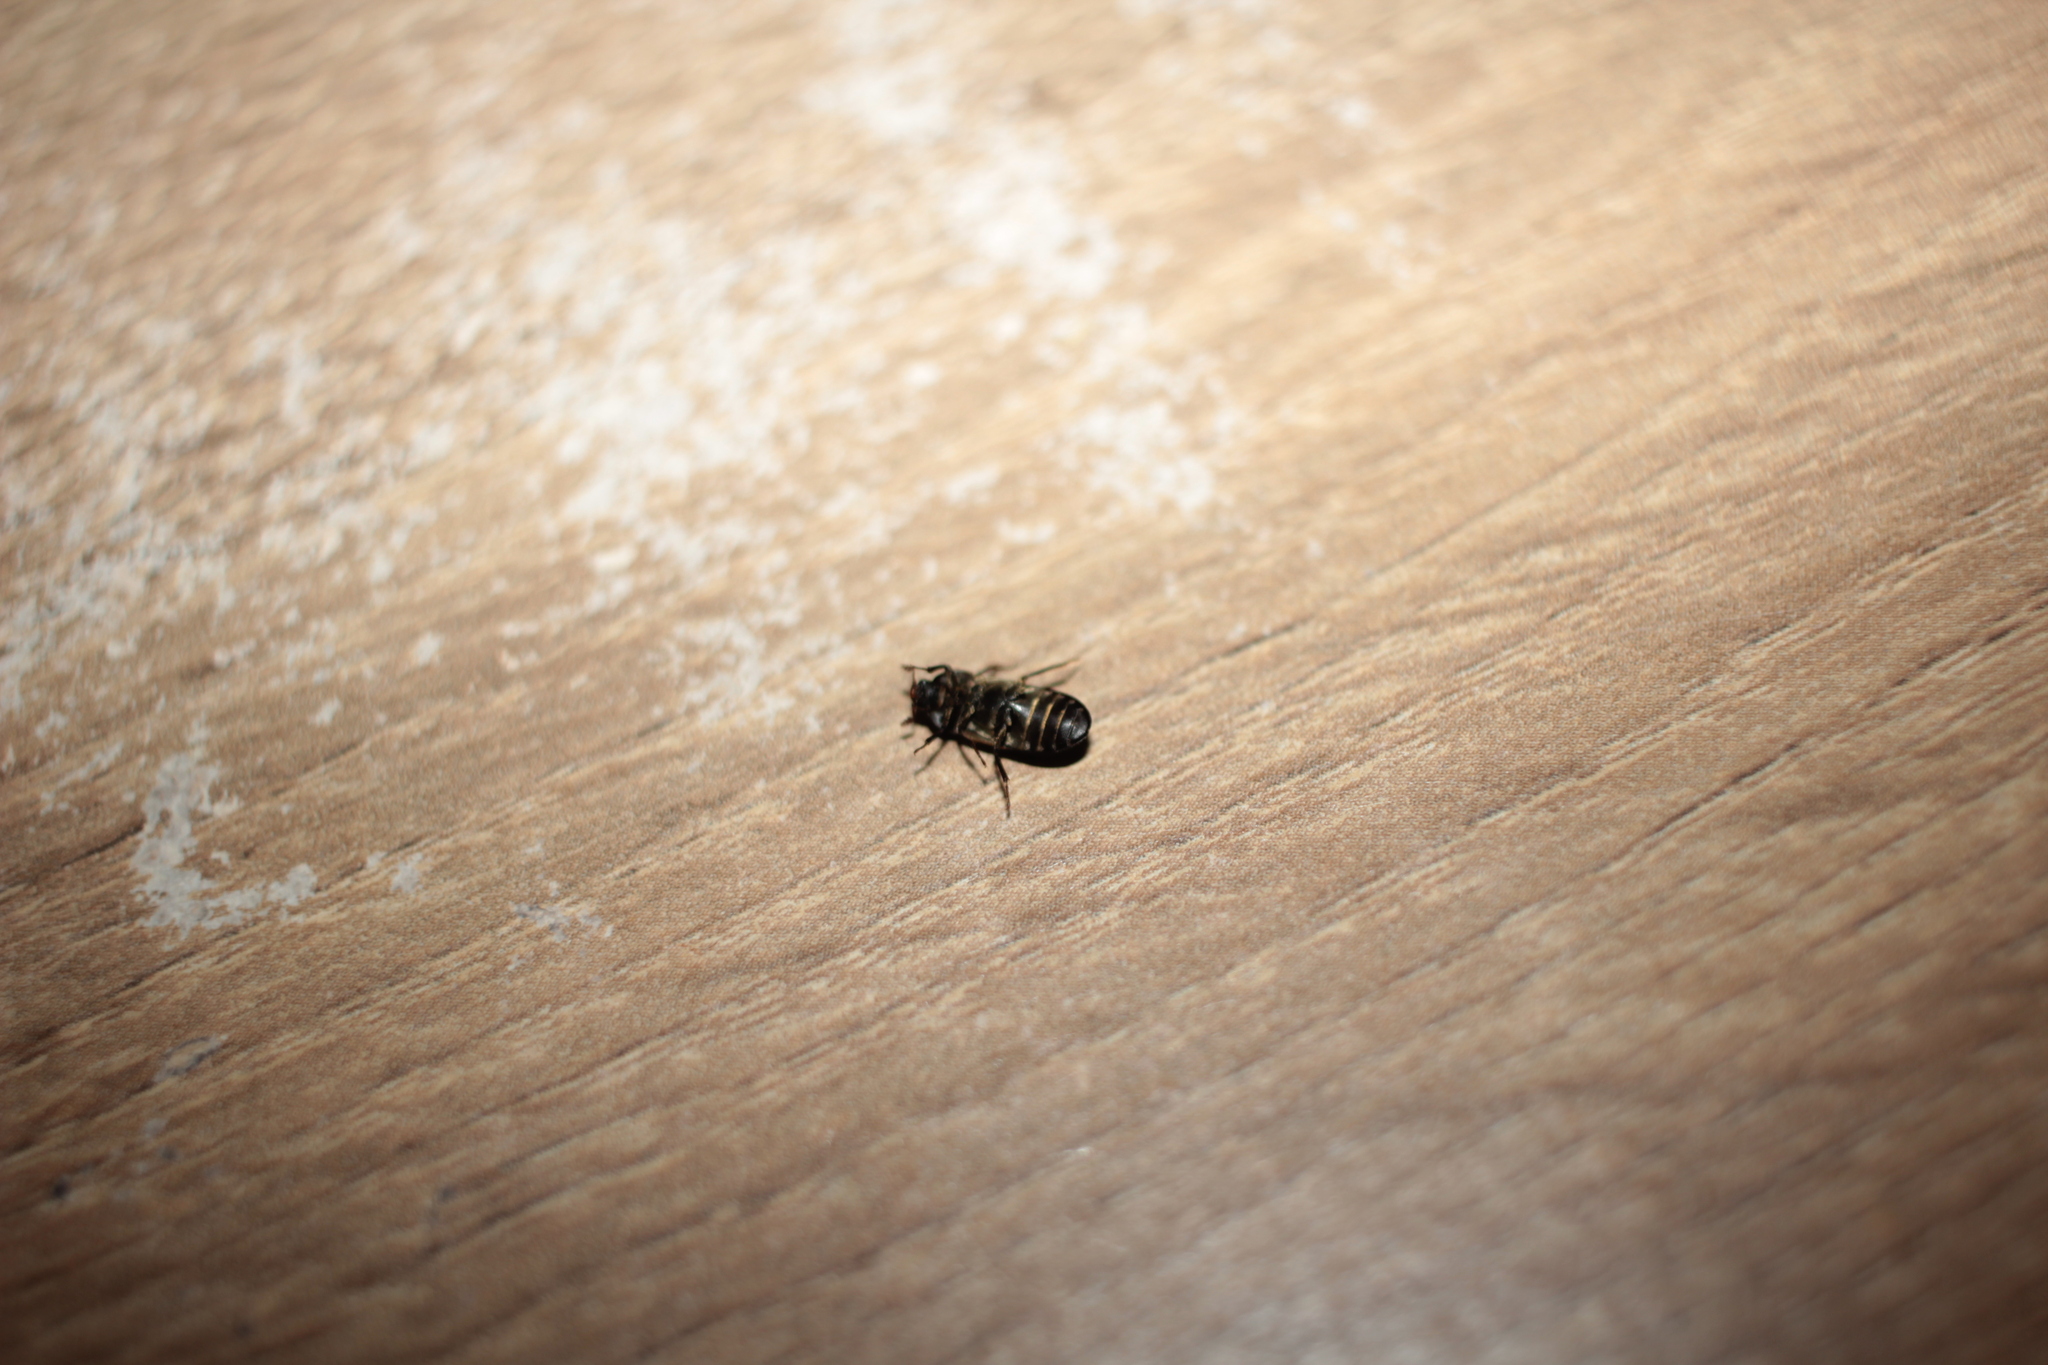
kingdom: Animalia
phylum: Arthropoda
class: Insecta
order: Coleoptera
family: Dermestidae
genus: Dermestes
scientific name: Dermestes lardarius
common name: Larder beetle
